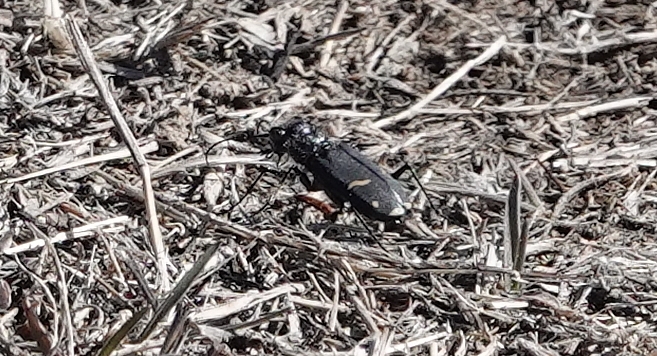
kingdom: Animalia
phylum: Arthropoda
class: Insecta
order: Coleoptera
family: Carabidae
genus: Cicindela
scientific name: Cicindela purpurea
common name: Cow path tiger beetle
